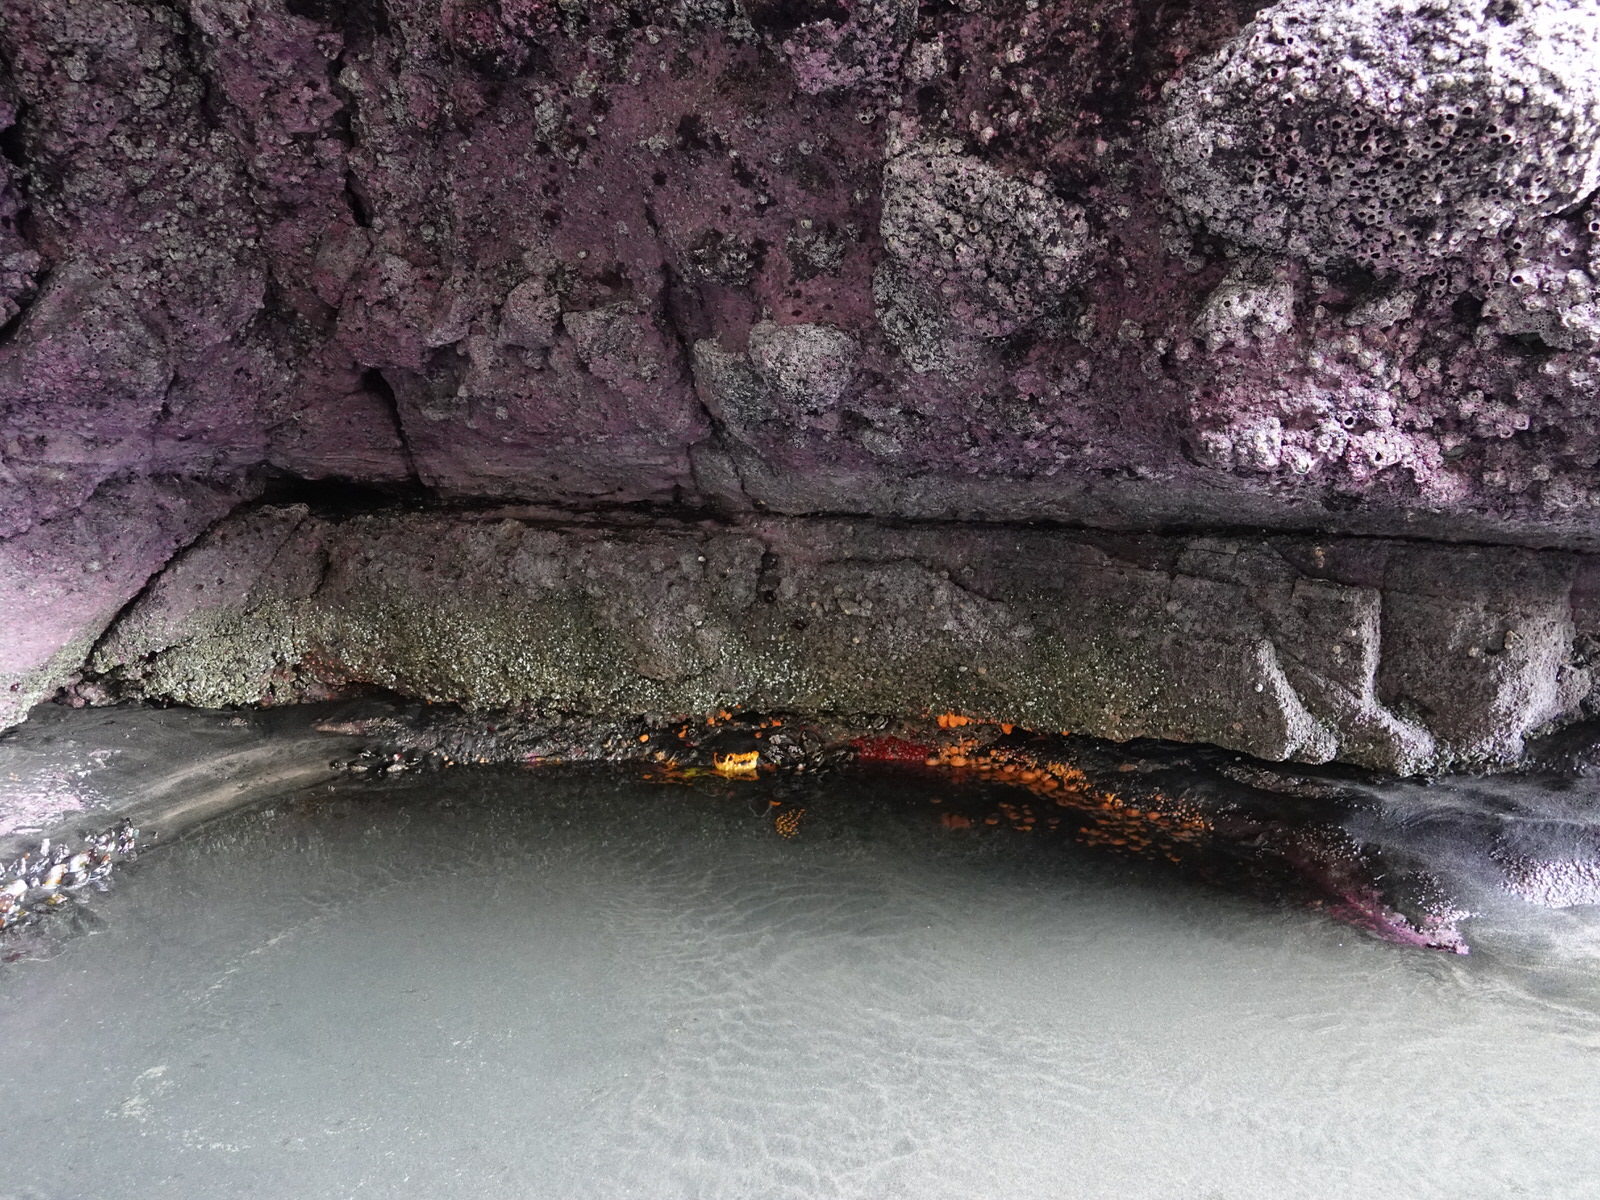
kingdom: Animalia
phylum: Porifera
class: Demospongiae
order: Tethyida
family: Tethyidae
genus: Tethya
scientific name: Tethya burtoni
